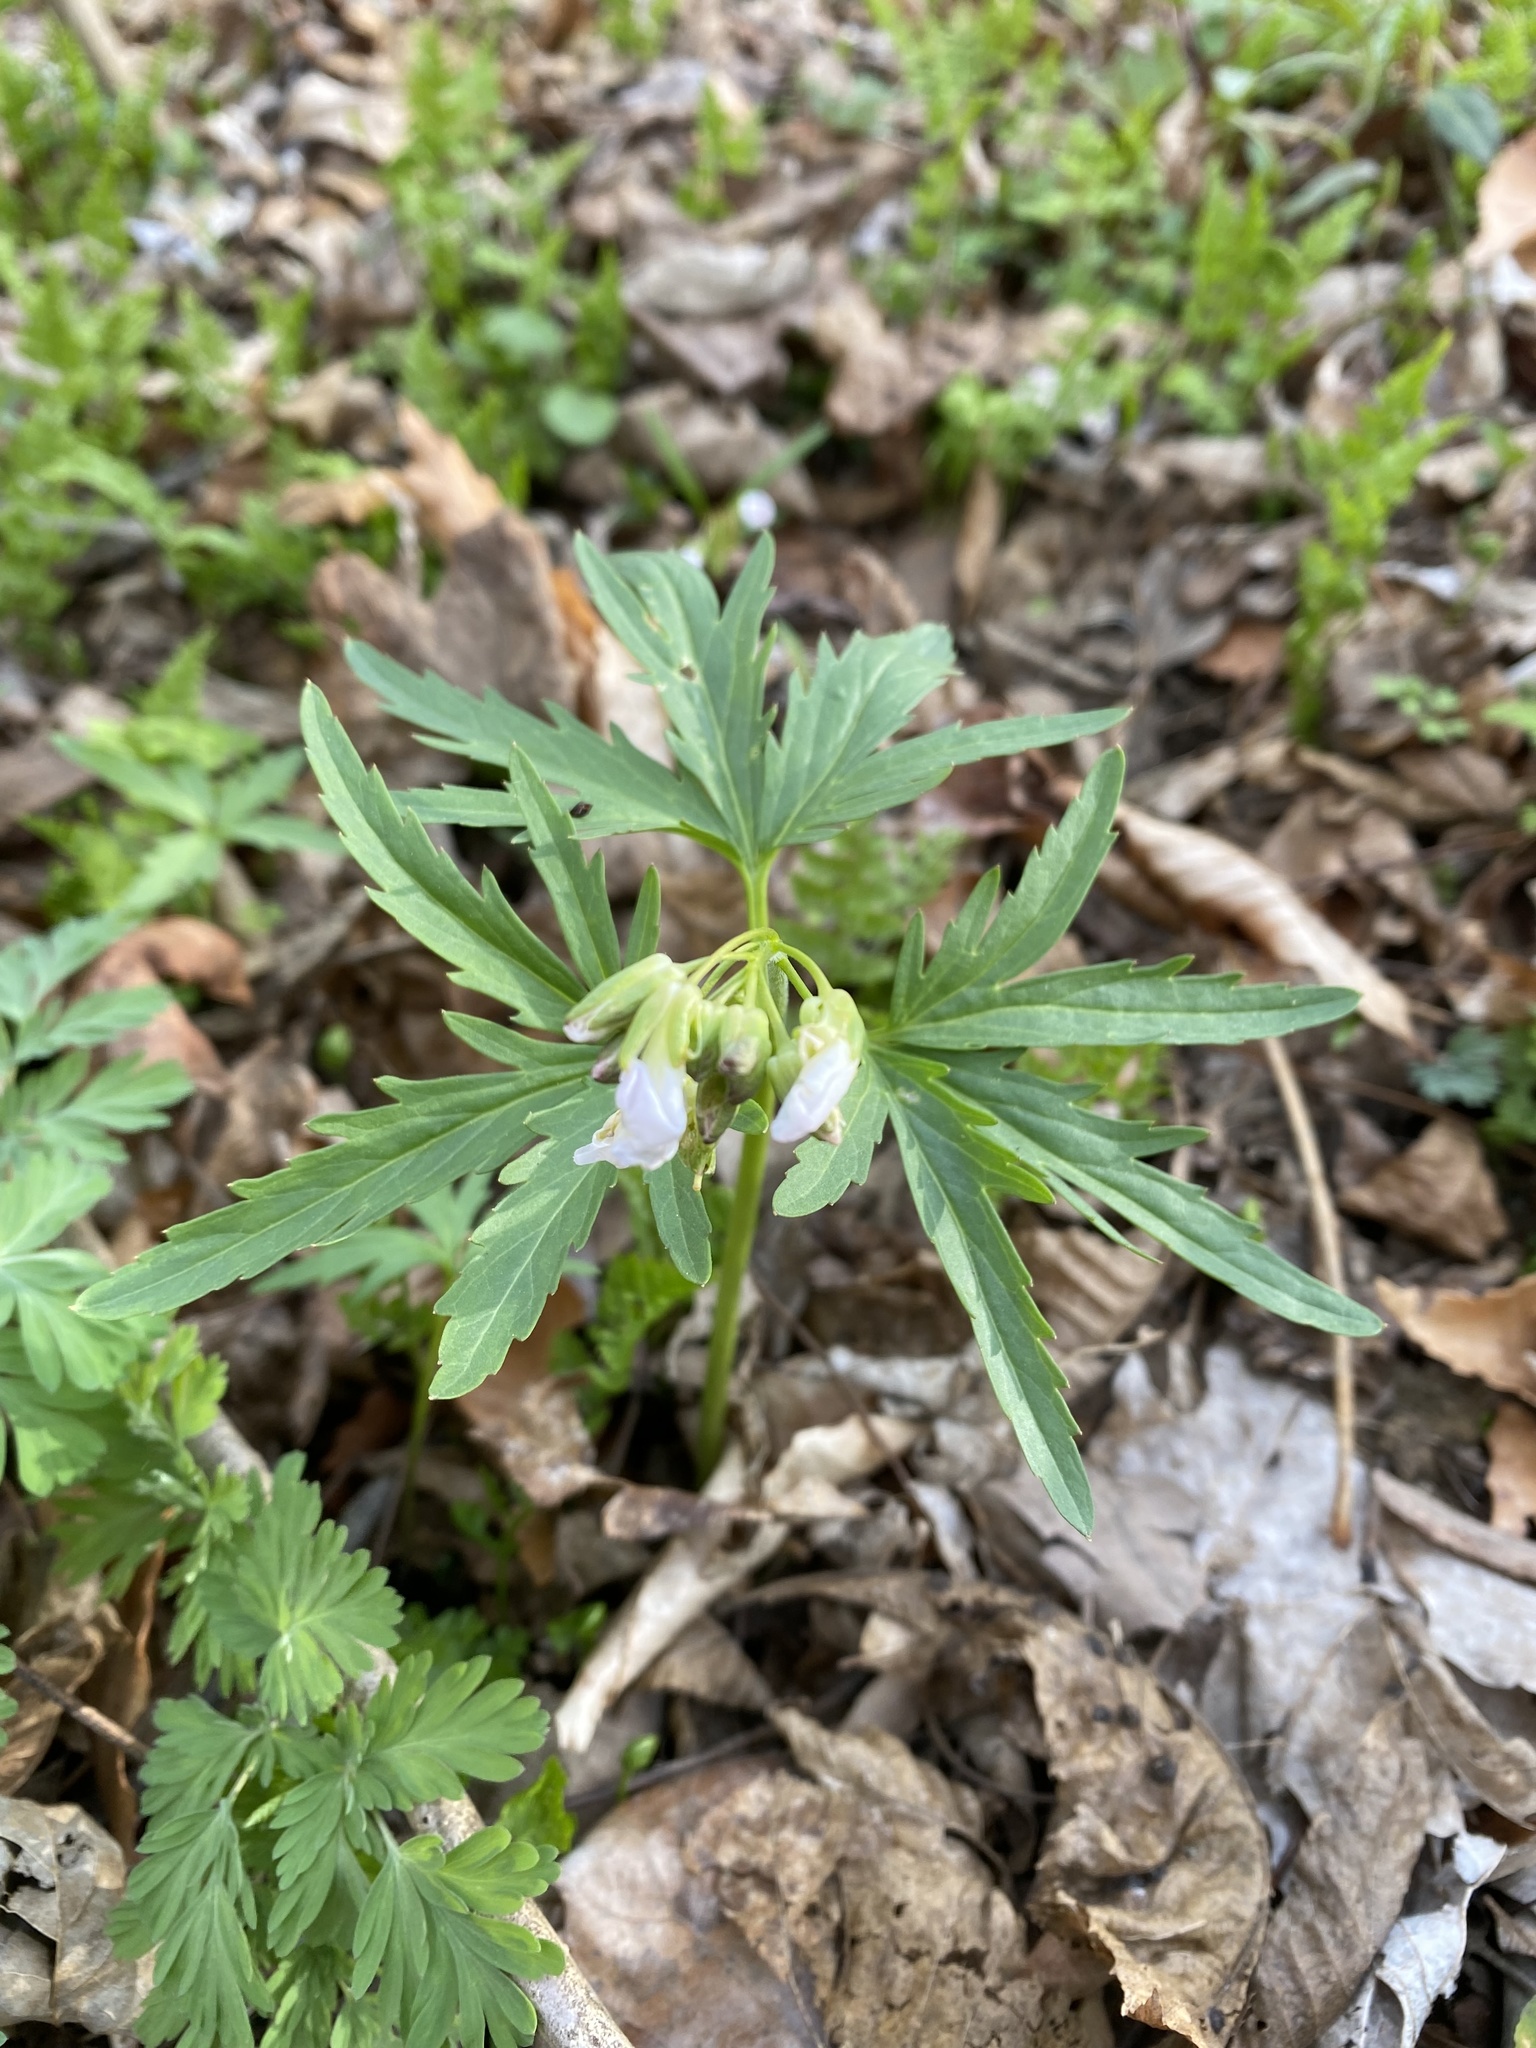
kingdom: Plantae
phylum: Tracheophyta
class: Magnoliopsida
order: Brassicales
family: Brassicaceae
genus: Cardamine
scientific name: Cardamine concatenata
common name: Cut-leaf toothcup
